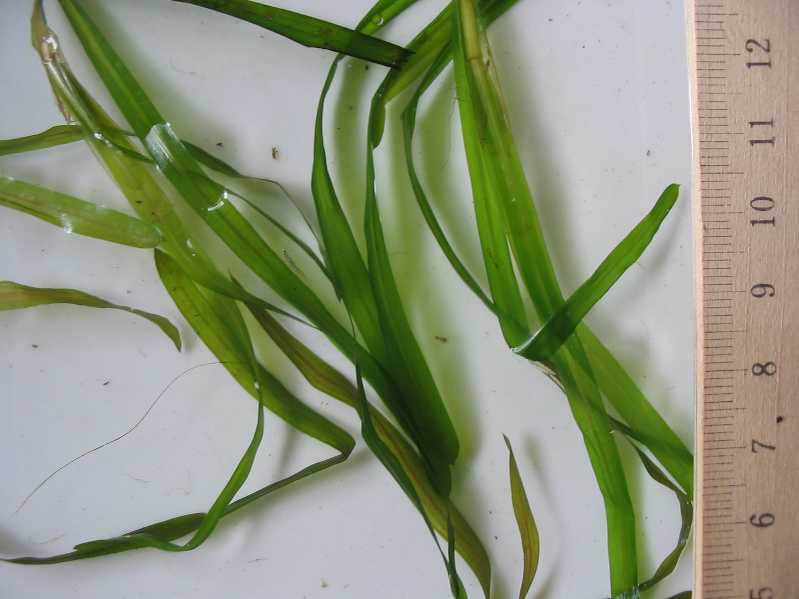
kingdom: Plantae
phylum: Tracheophyta
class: Liliopsida
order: Alismatales
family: Potamogetonaceae
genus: Potamogeton
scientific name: Potamogeton compressus
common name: Grass-wrack pondweed
